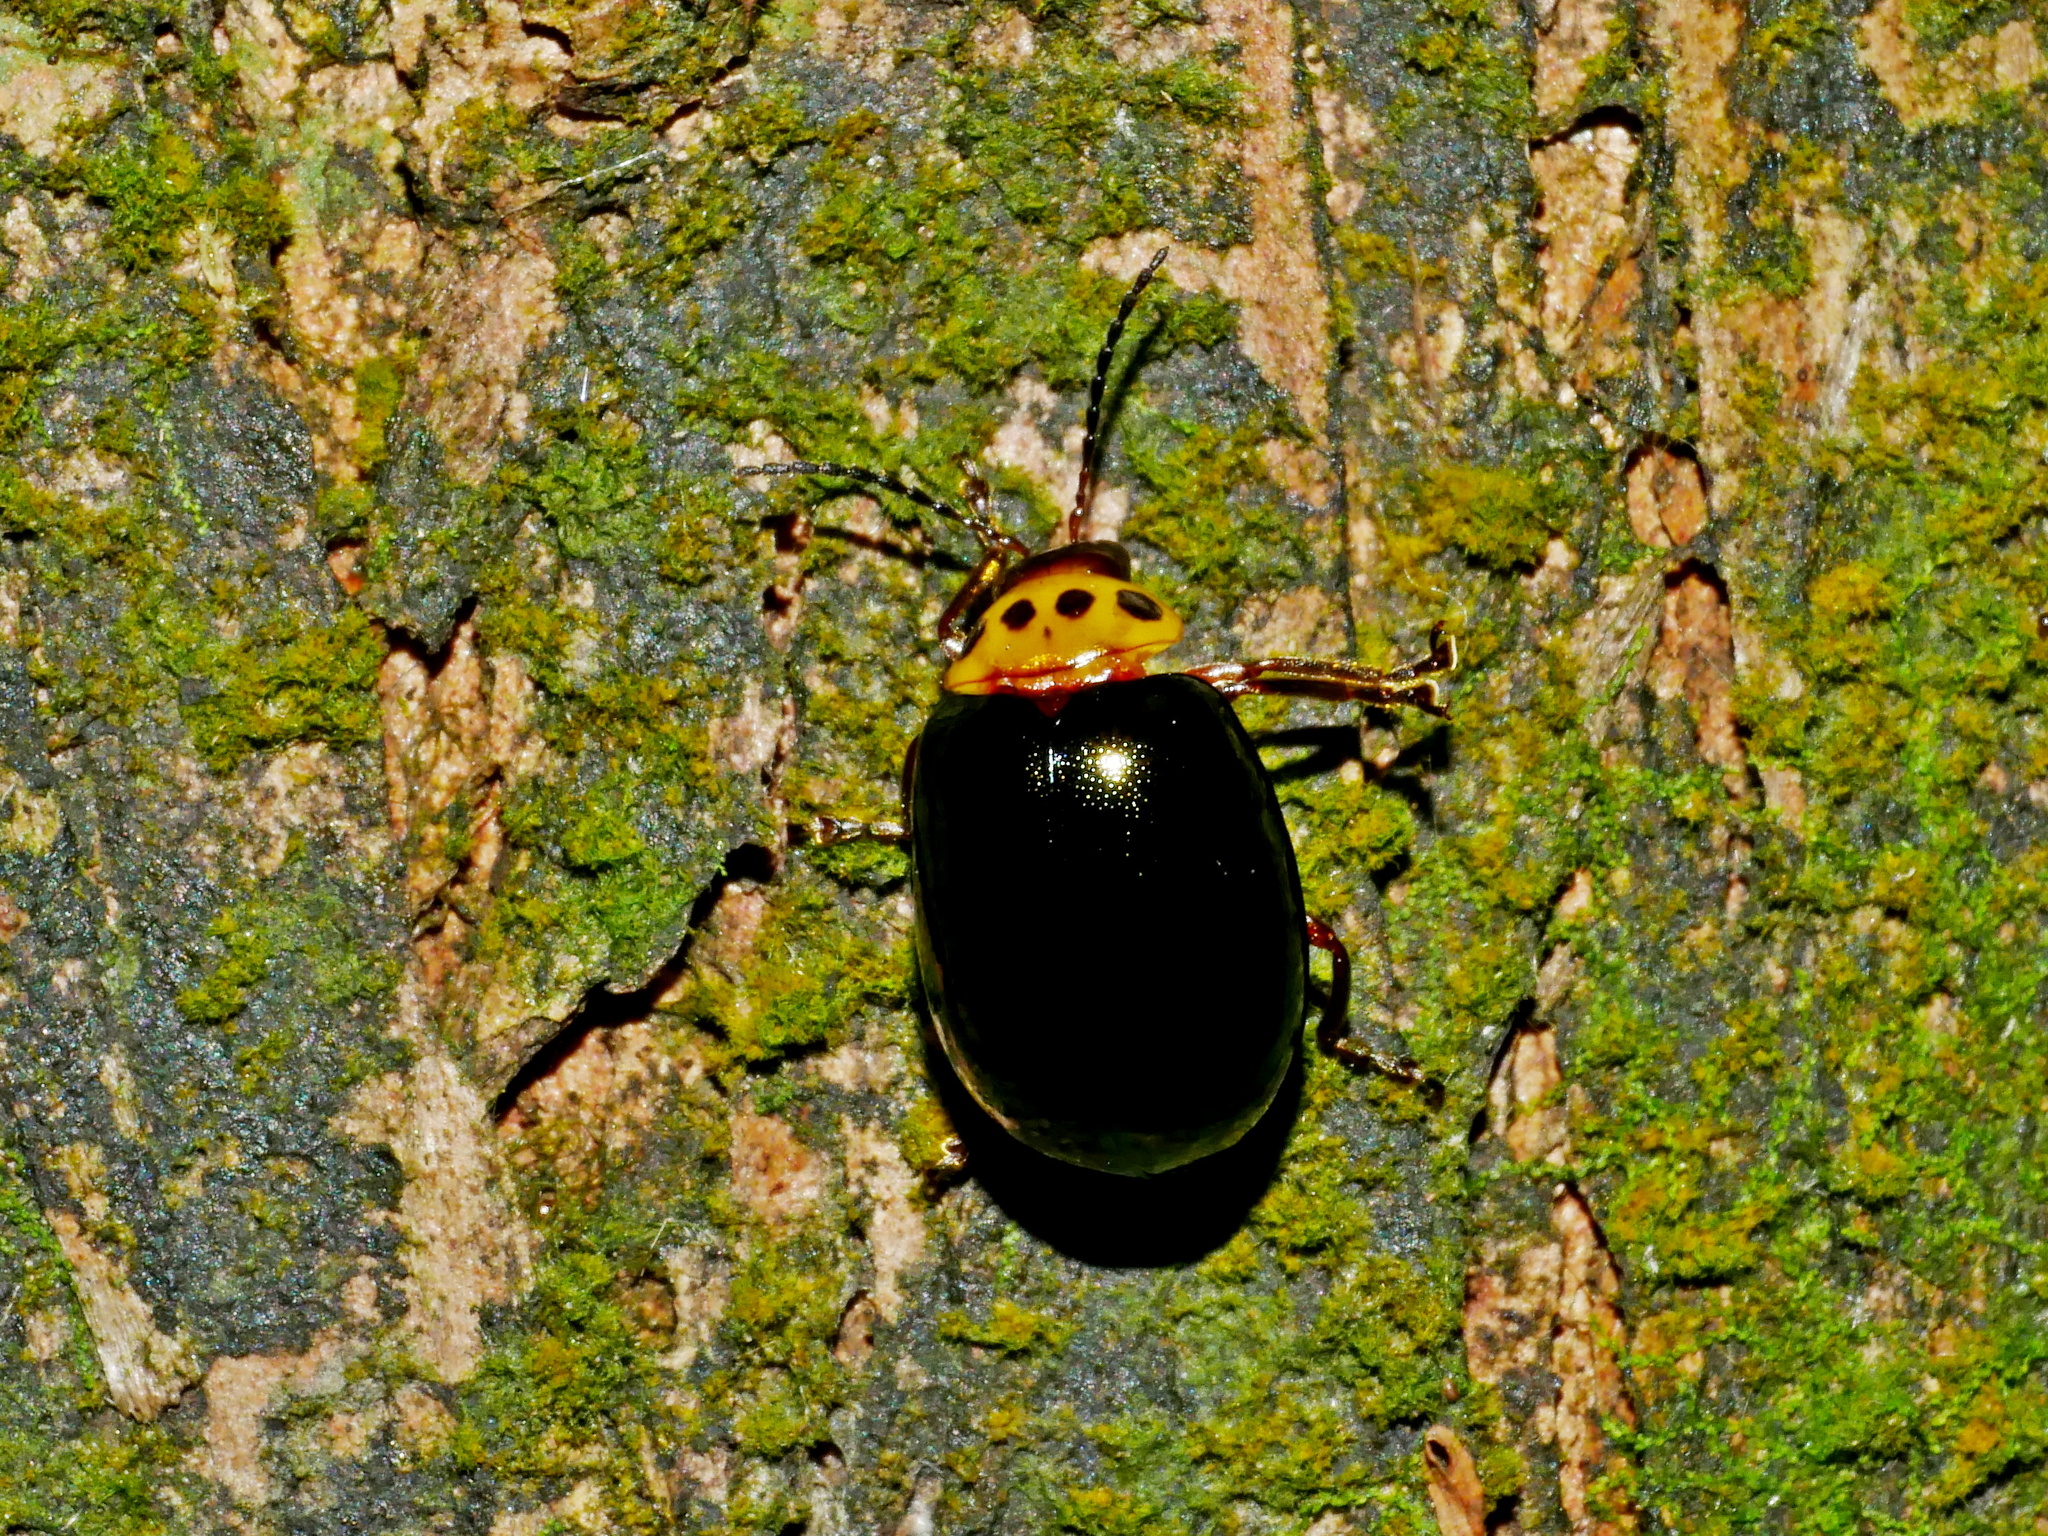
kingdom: Animalia
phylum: Arthropoda
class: Insecta
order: Coleoptera
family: Chrysomelidae
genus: Morphosphaera
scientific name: Morphosphaera chrysomeloides
